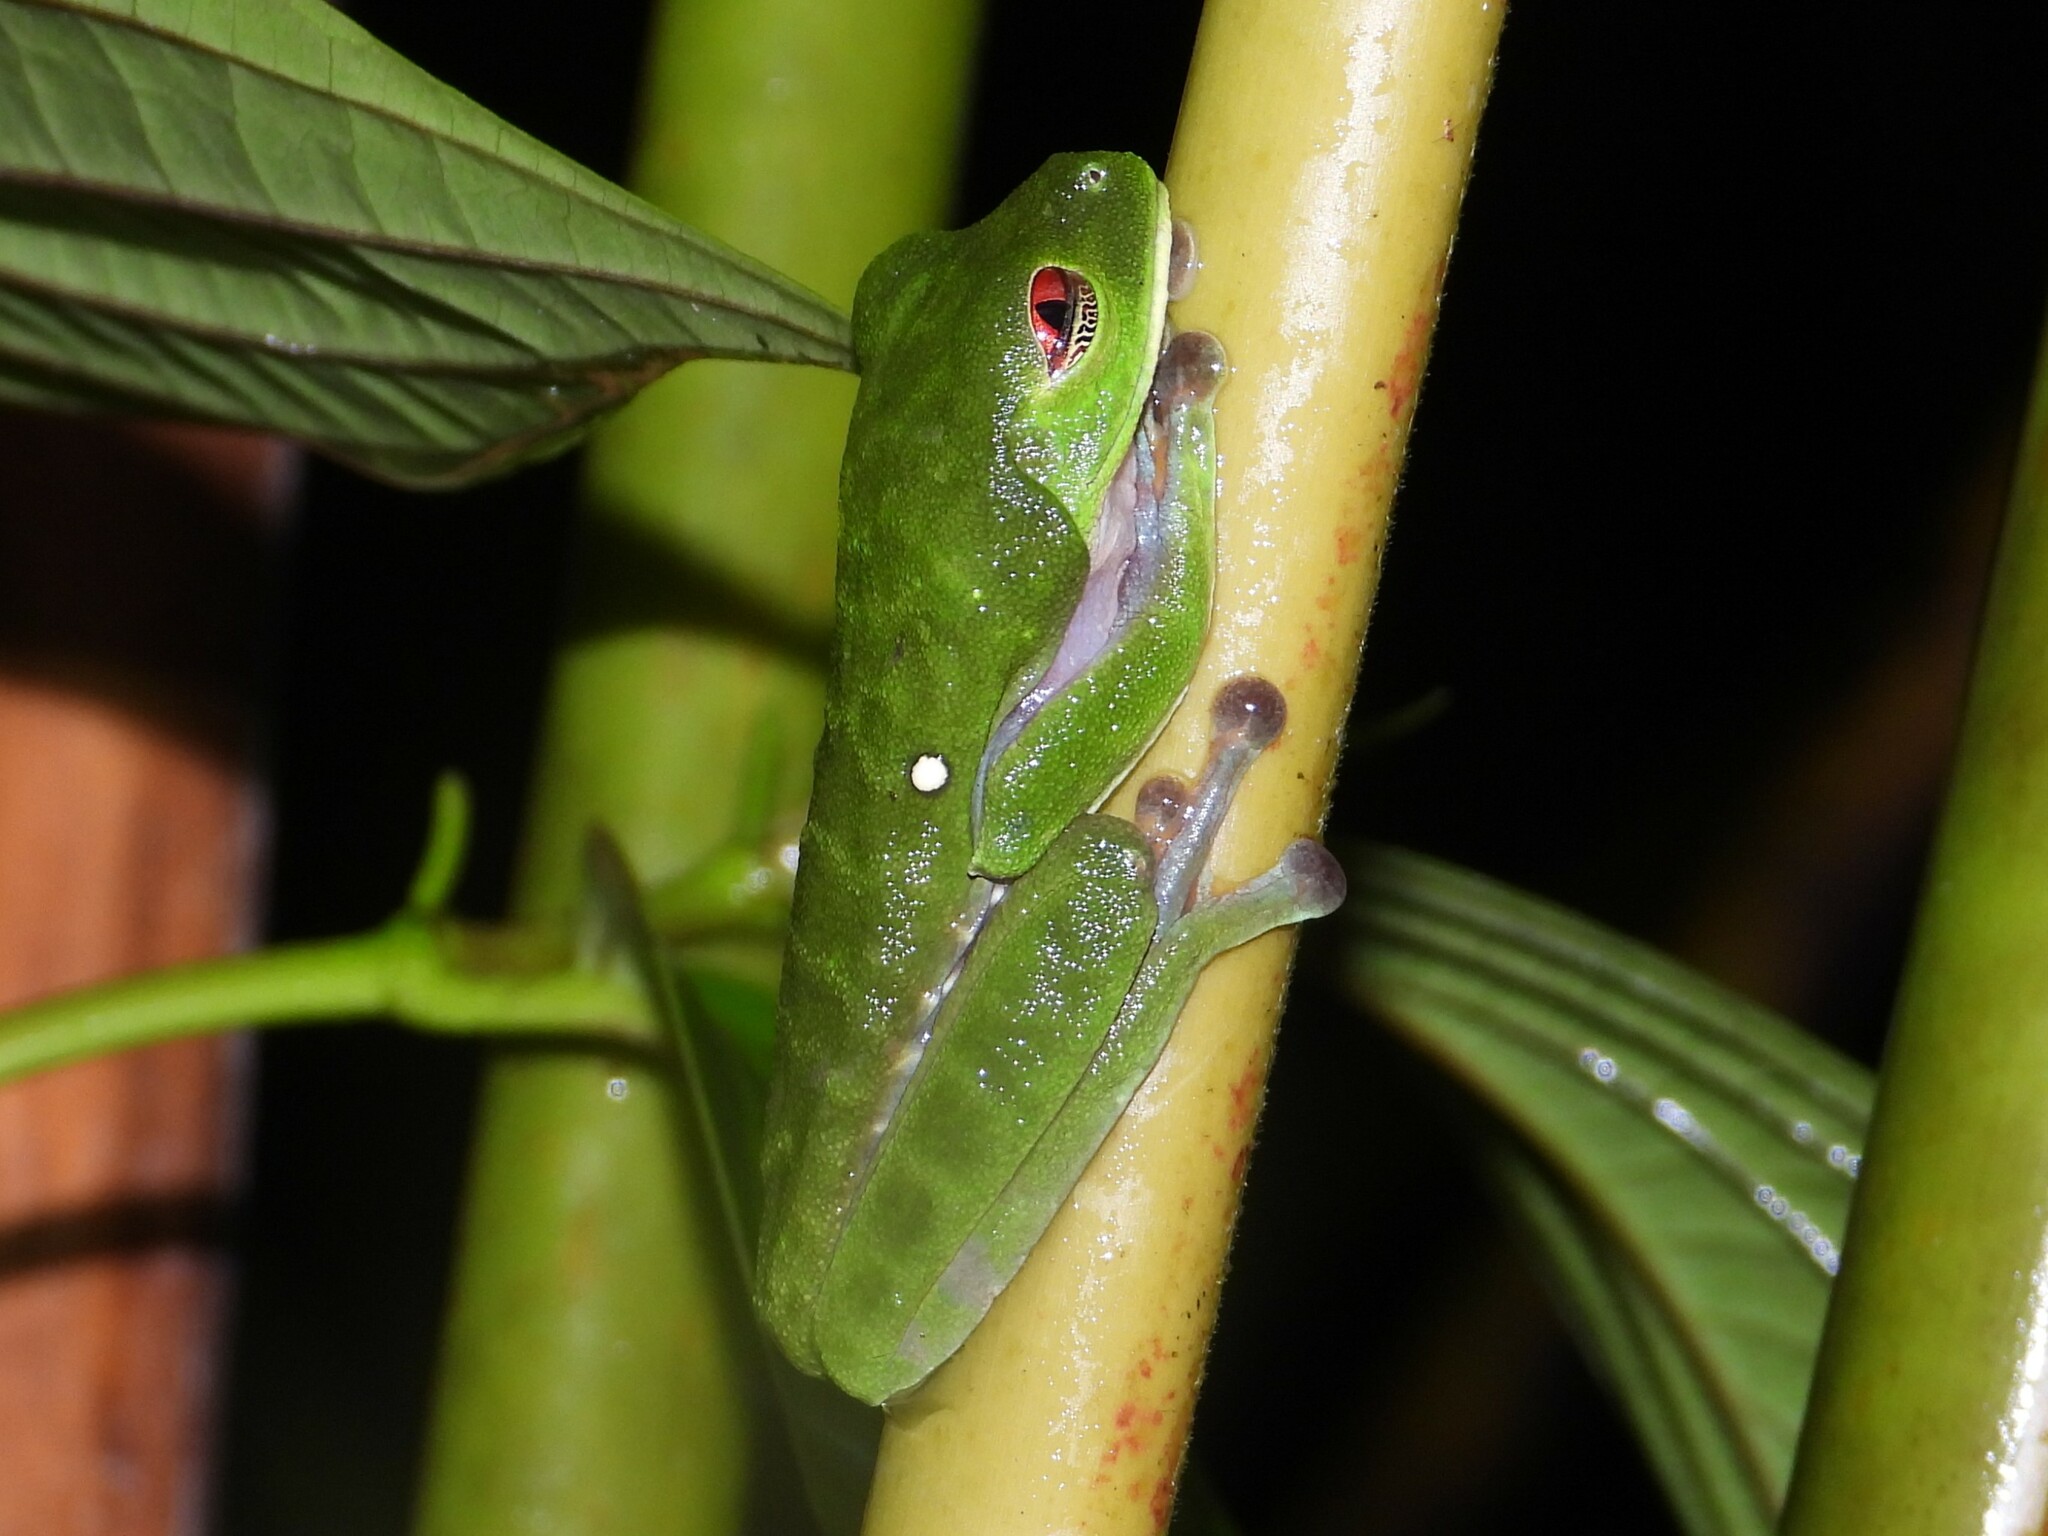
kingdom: Animalia
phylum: Chordata
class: Amphibia
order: Anura
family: Phyllomedusidae
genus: Agalychnis
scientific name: Agalychnis callidryas
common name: Red-eyed treefrog
